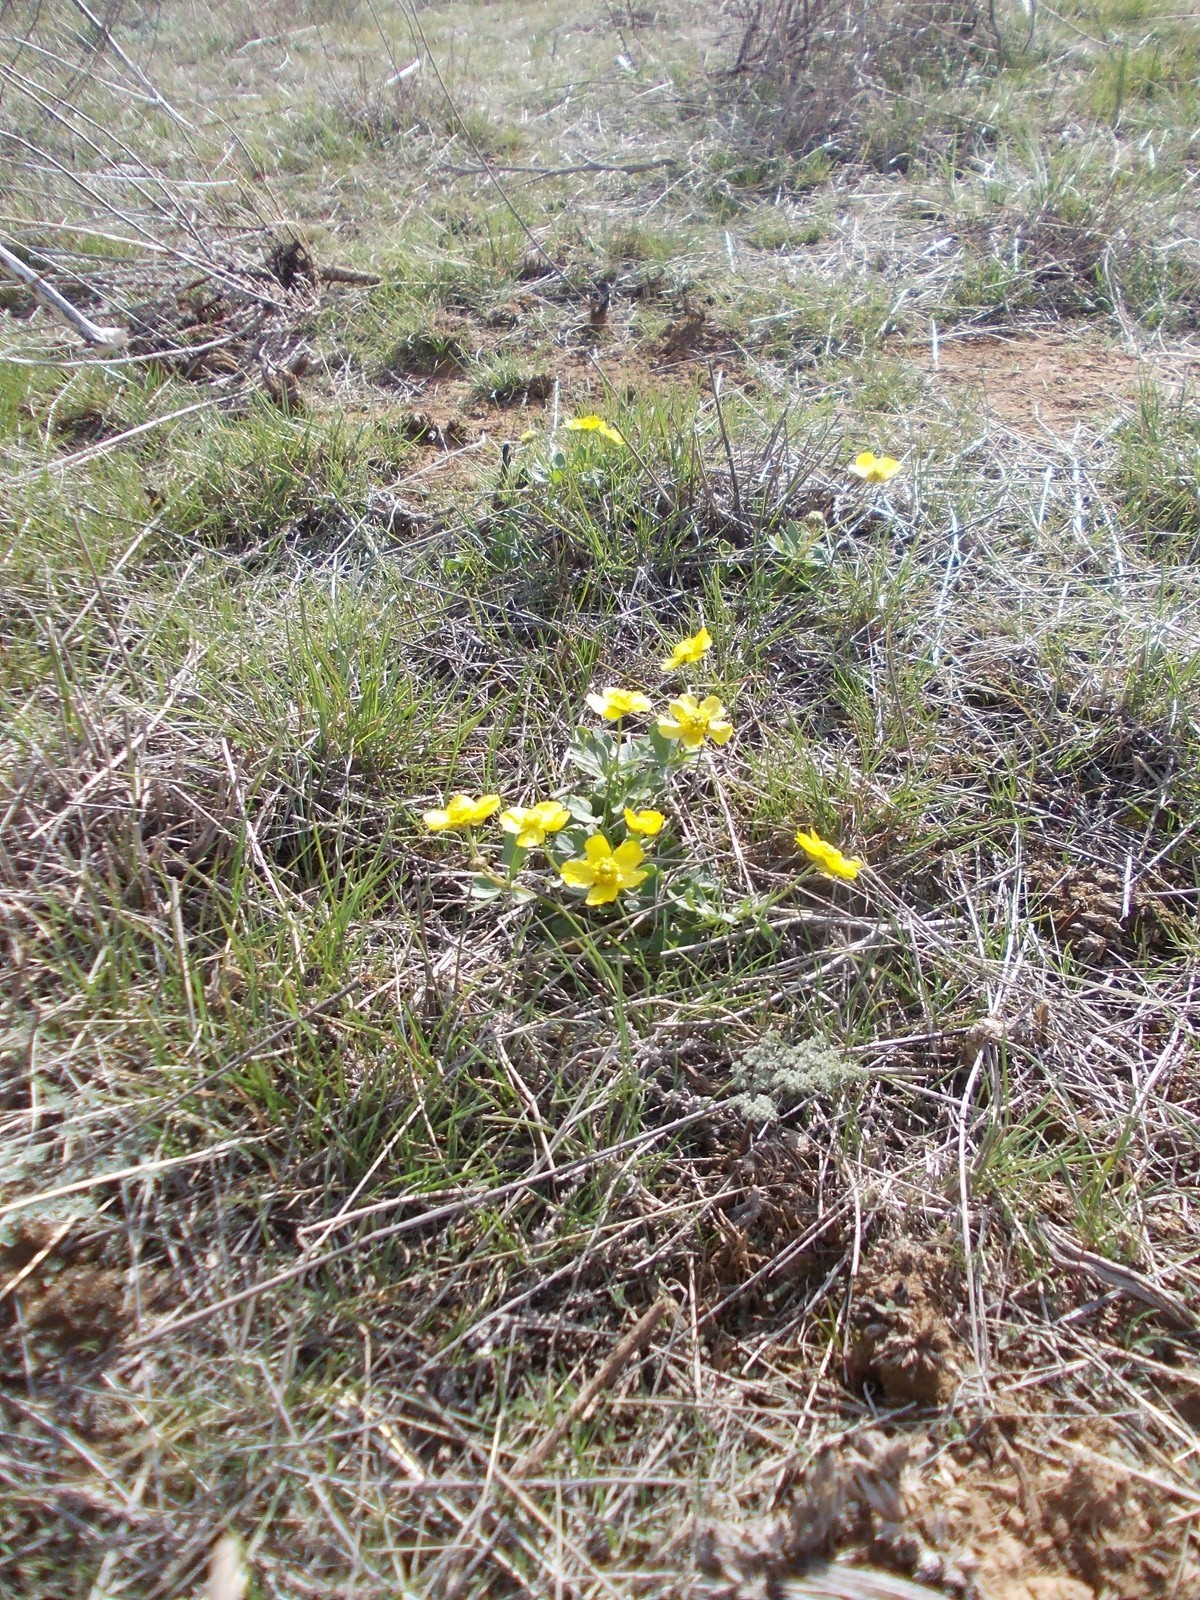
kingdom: Plantae
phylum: Tracheophyta
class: Magnoliopsida
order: Ranunculales
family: Ranunculaceae
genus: Ranunculus
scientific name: Ranunculus polyrhizos
